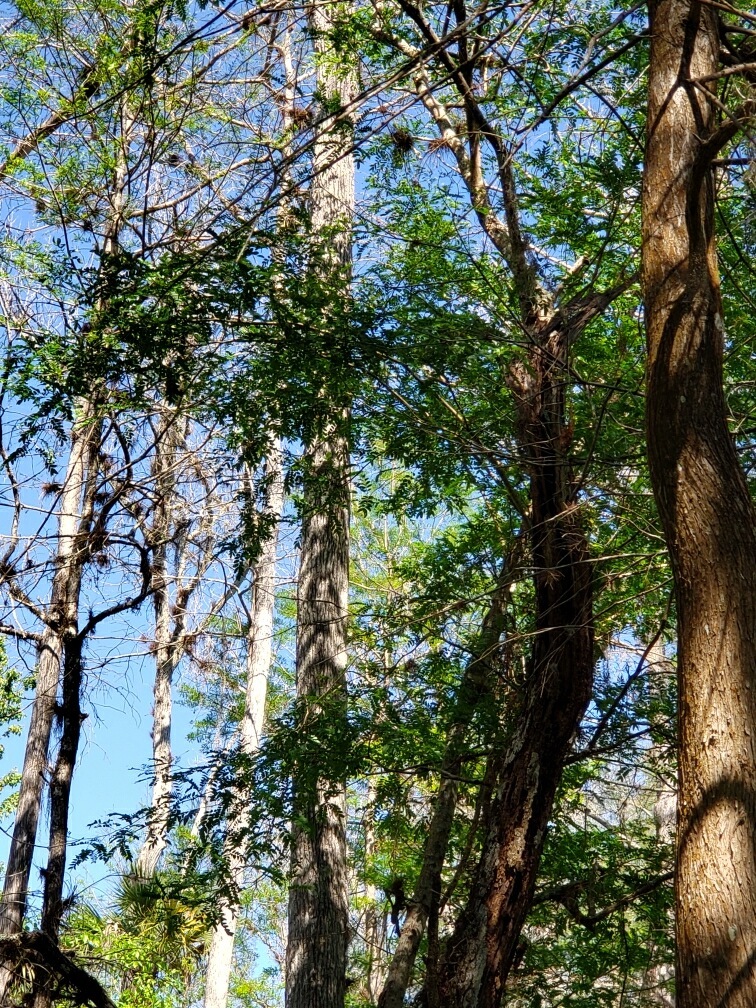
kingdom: Plantae
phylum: Tracheophyta
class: Magnoliopsida
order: Fabales
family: Fabaceae
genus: Gleditsia
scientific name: Gleditsia aquatica
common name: Swamp-locust
